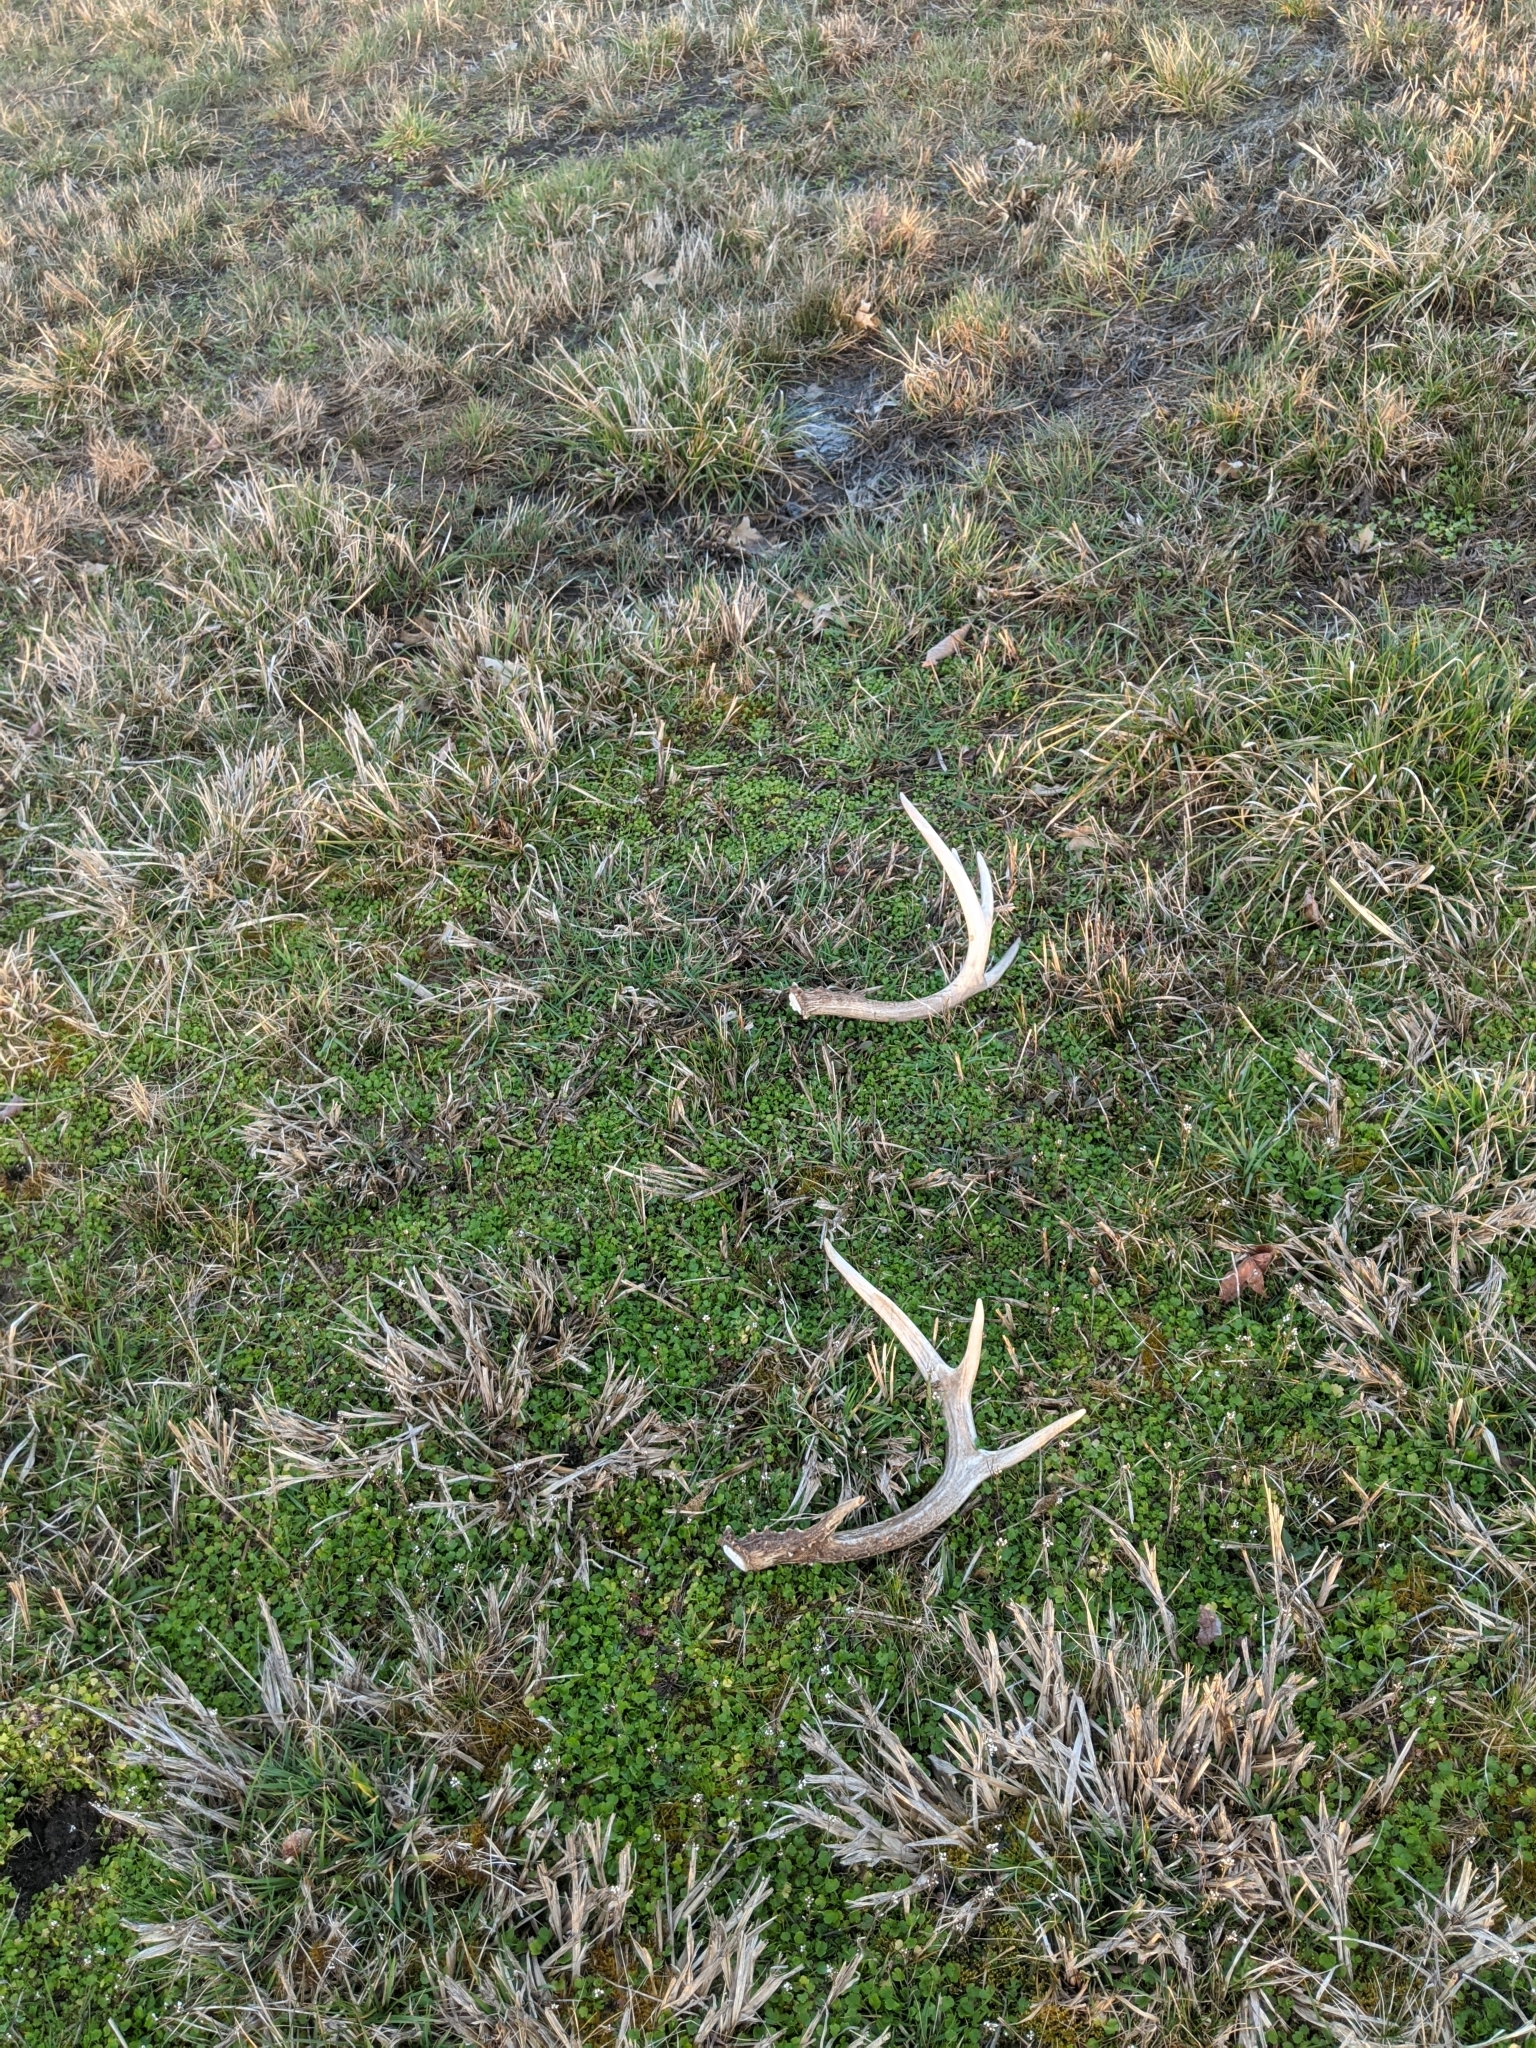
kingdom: Animalia
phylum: Chordata
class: Mammalia
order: Artiodactyla
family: Cervidae
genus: Odocoileus
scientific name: Odocoileus virginianus
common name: White-tailed deer
